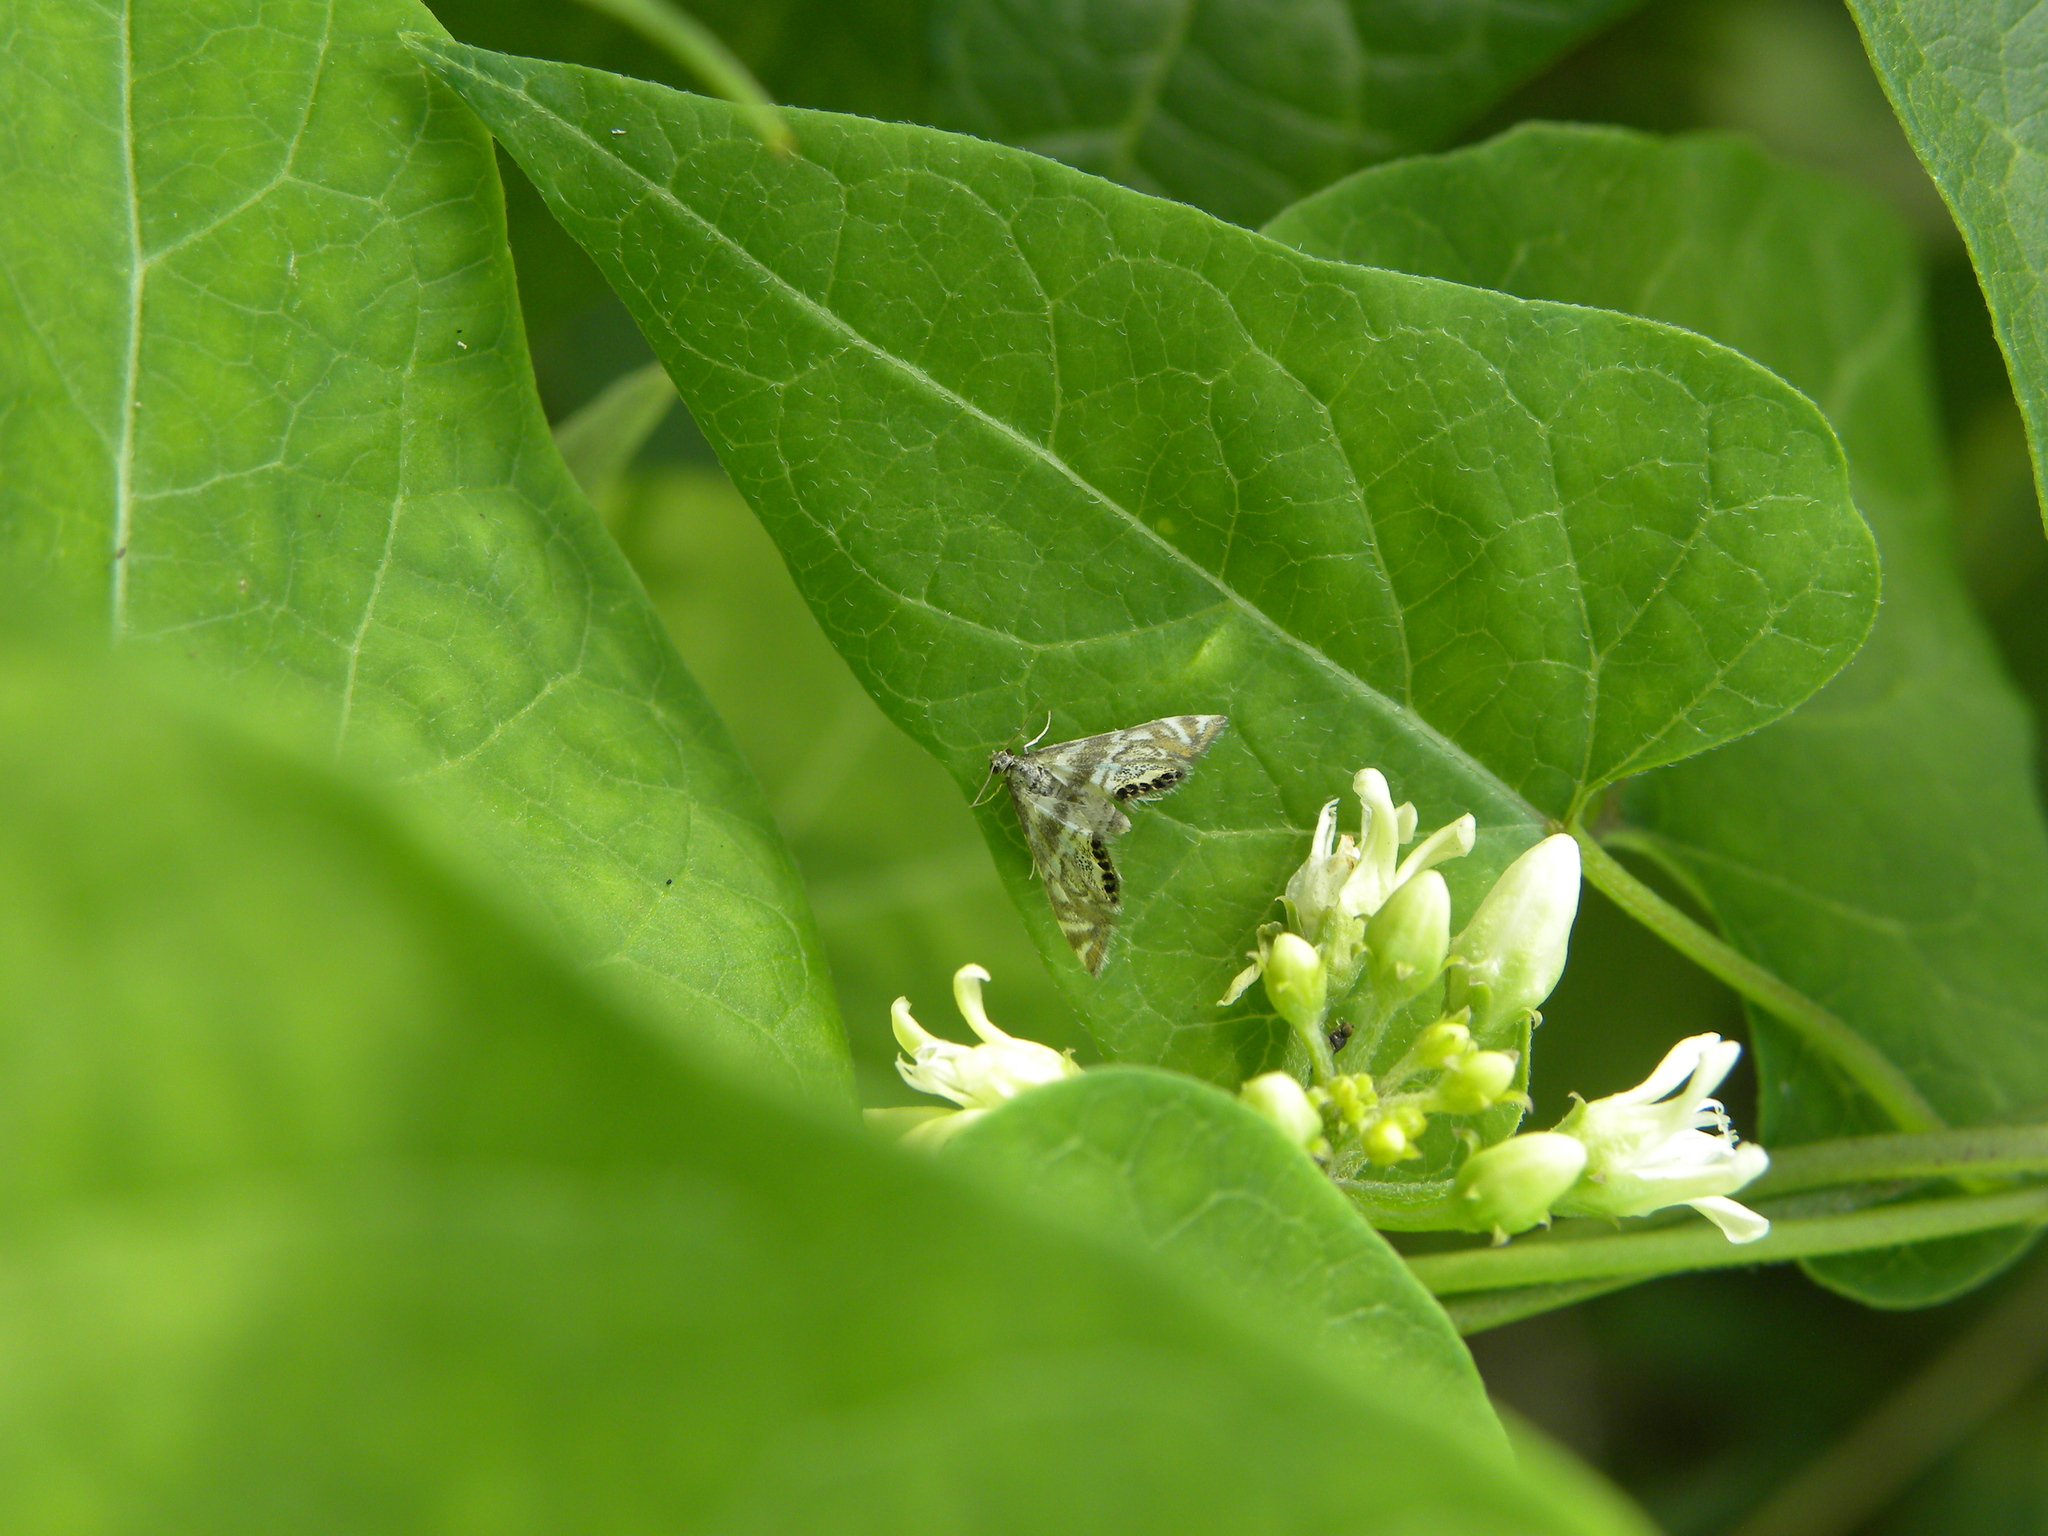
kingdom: Animalia
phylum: Arthropoda
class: Insecta
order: Lepidoptera
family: Crambidae
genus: Petrophila
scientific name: Petrophila canadensis
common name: Canadian petrophila
